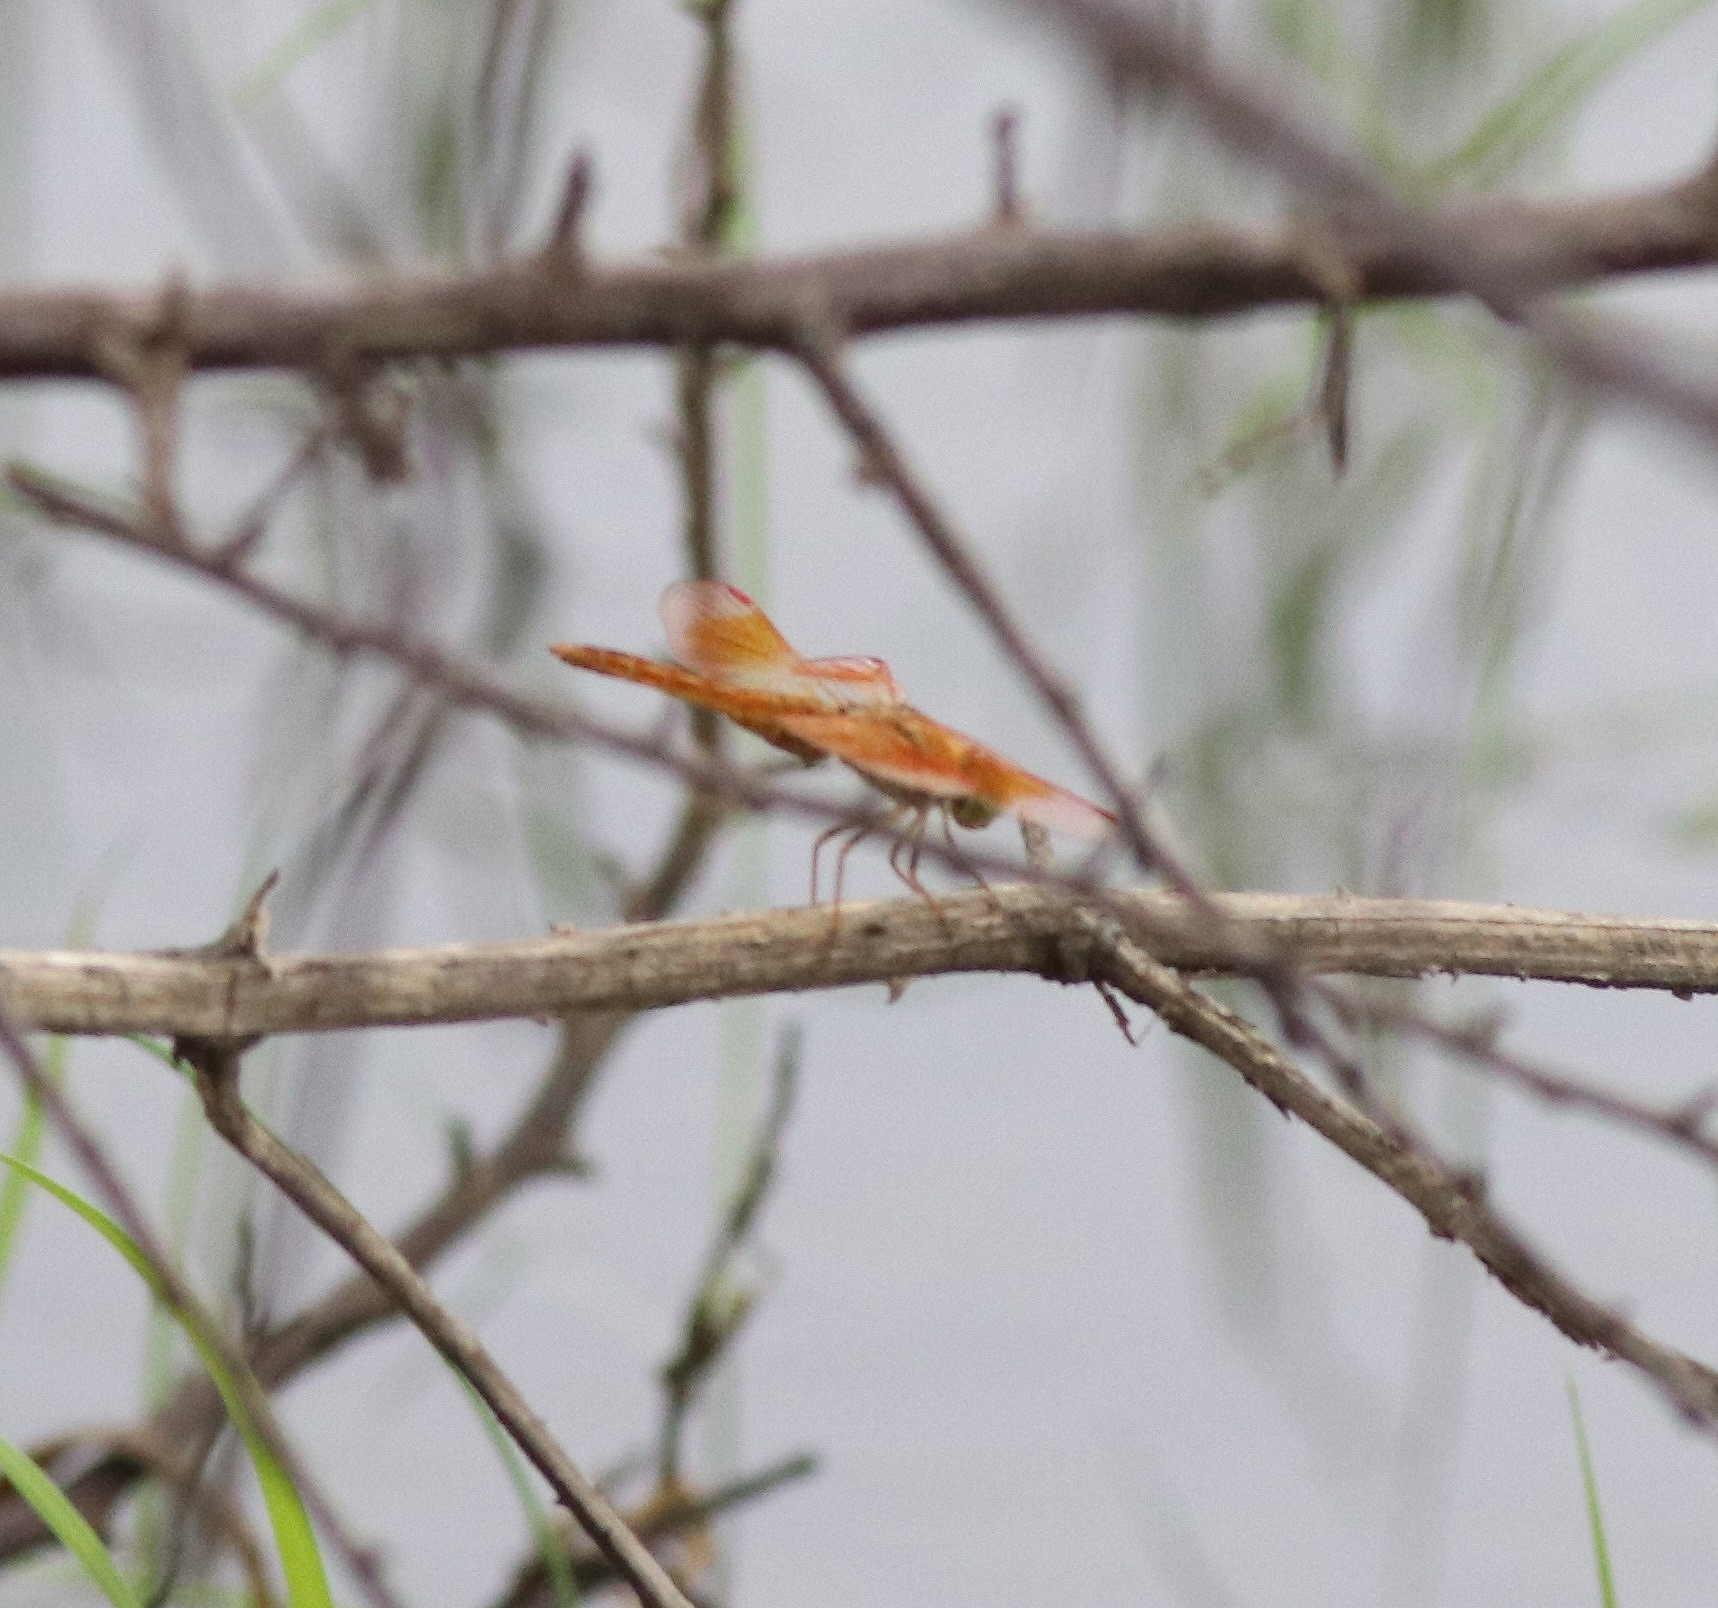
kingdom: Animalia
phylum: Arthropoda
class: Insecta
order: Odonata
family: Libellulidae
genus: Brachythemis
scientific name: Brachythemis contaminata
